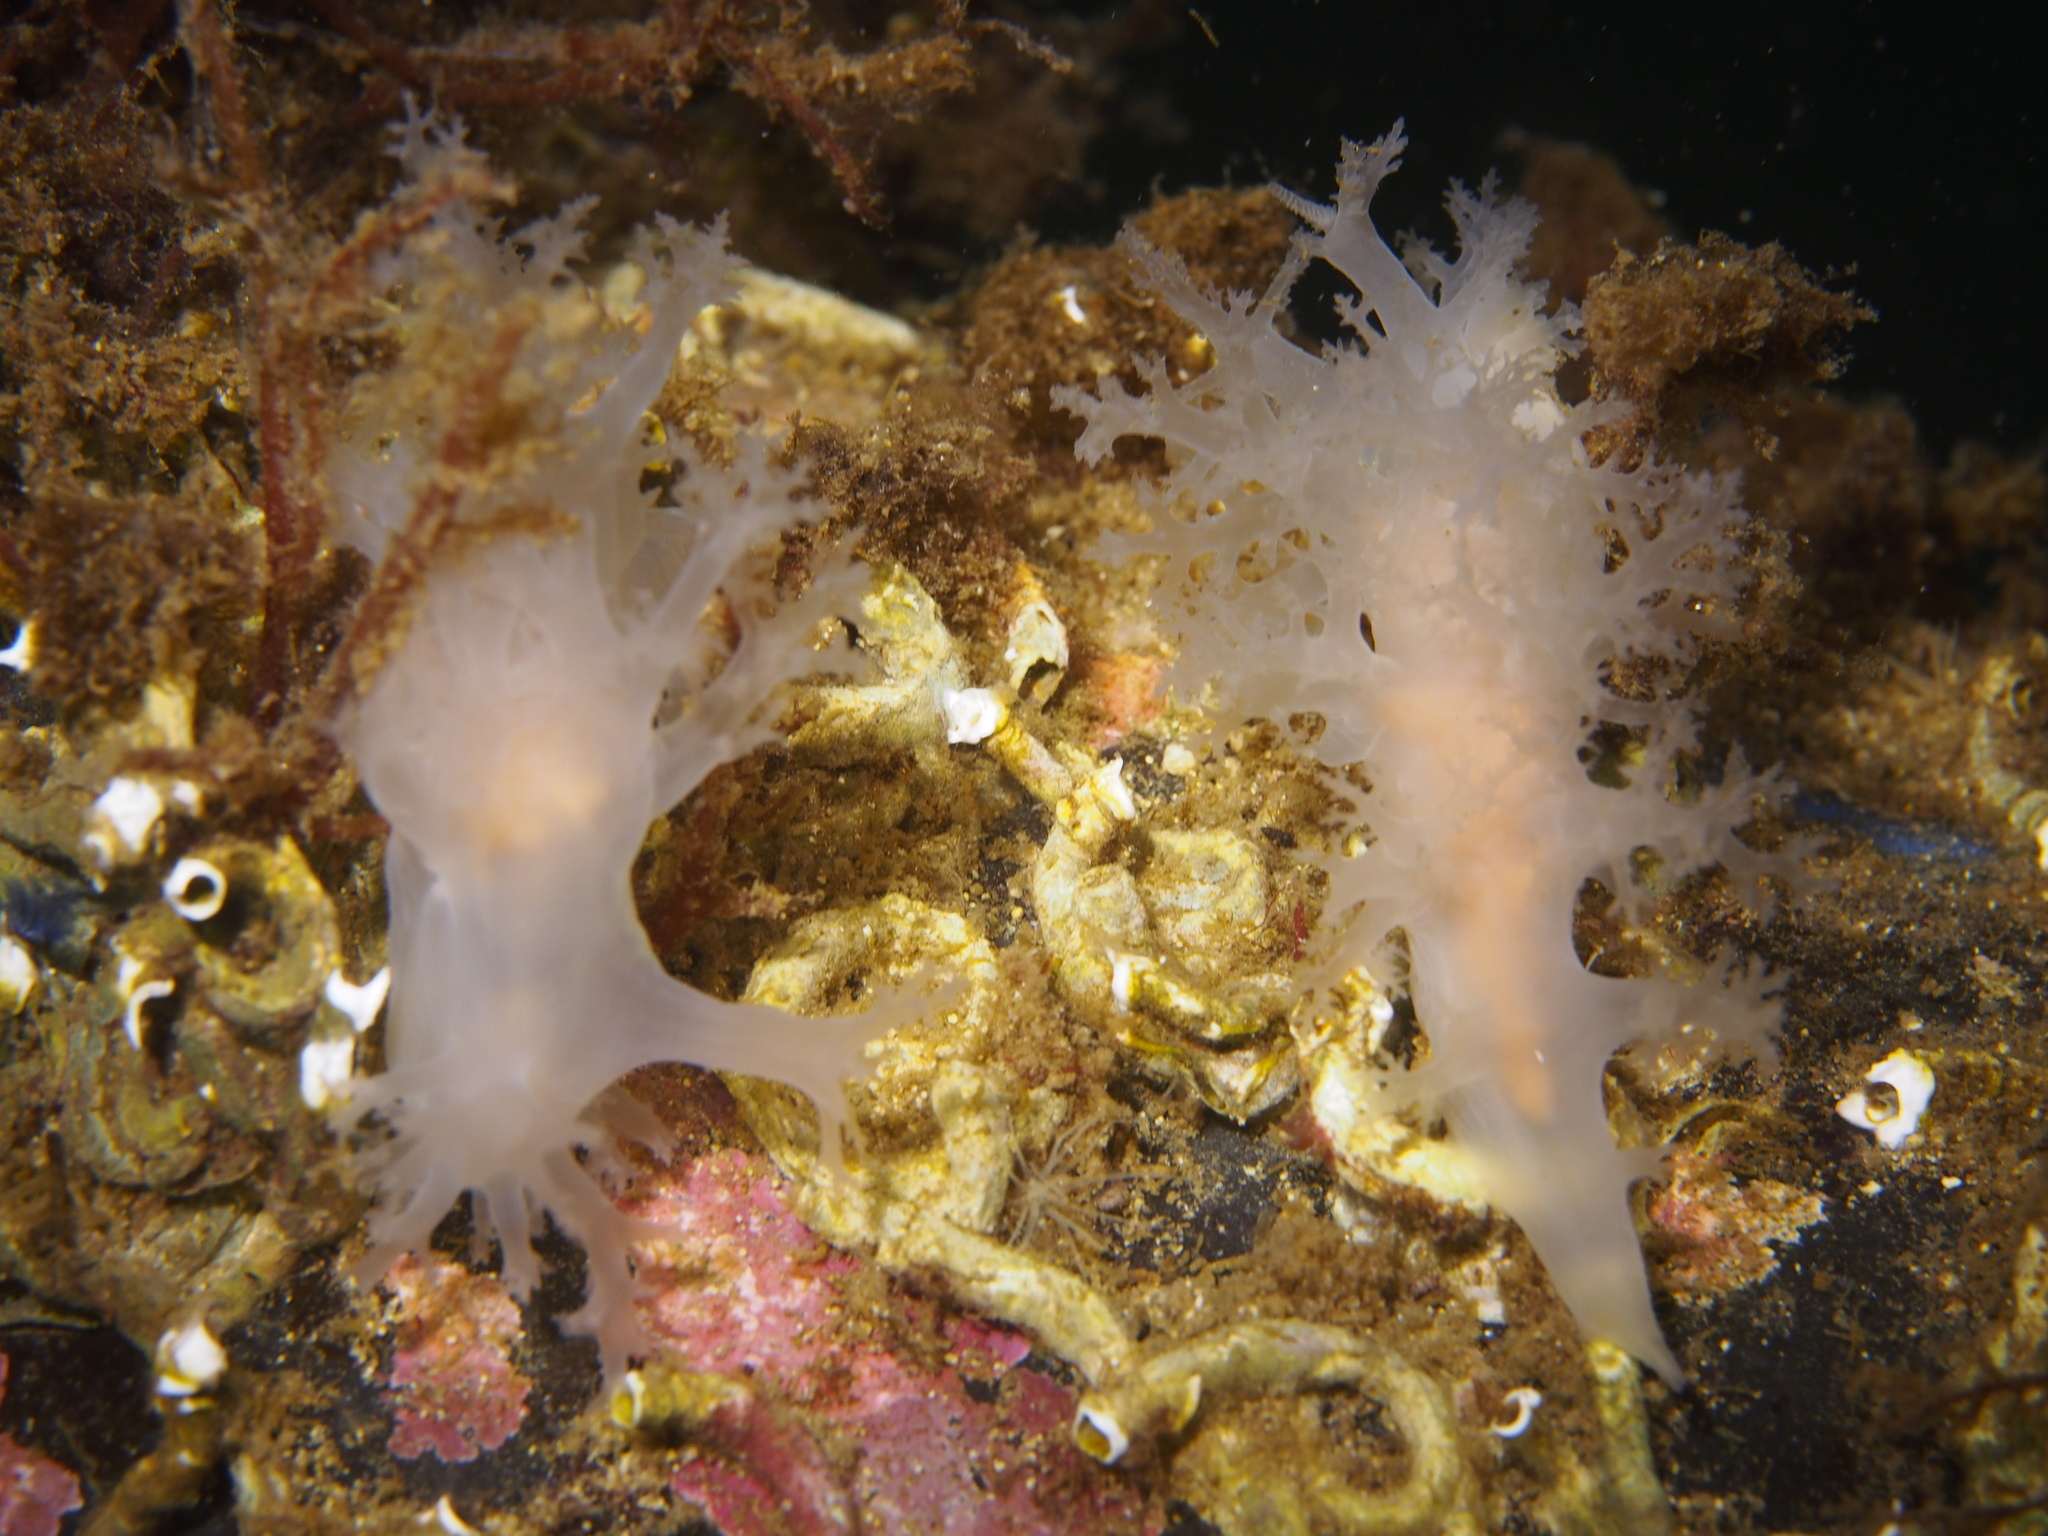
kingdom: Animalia
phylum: Mollusca
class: Gastropoda
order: Nudibranchia
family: Dendronotidae
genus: Dendronotus
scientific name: Dendronotus lacteus
